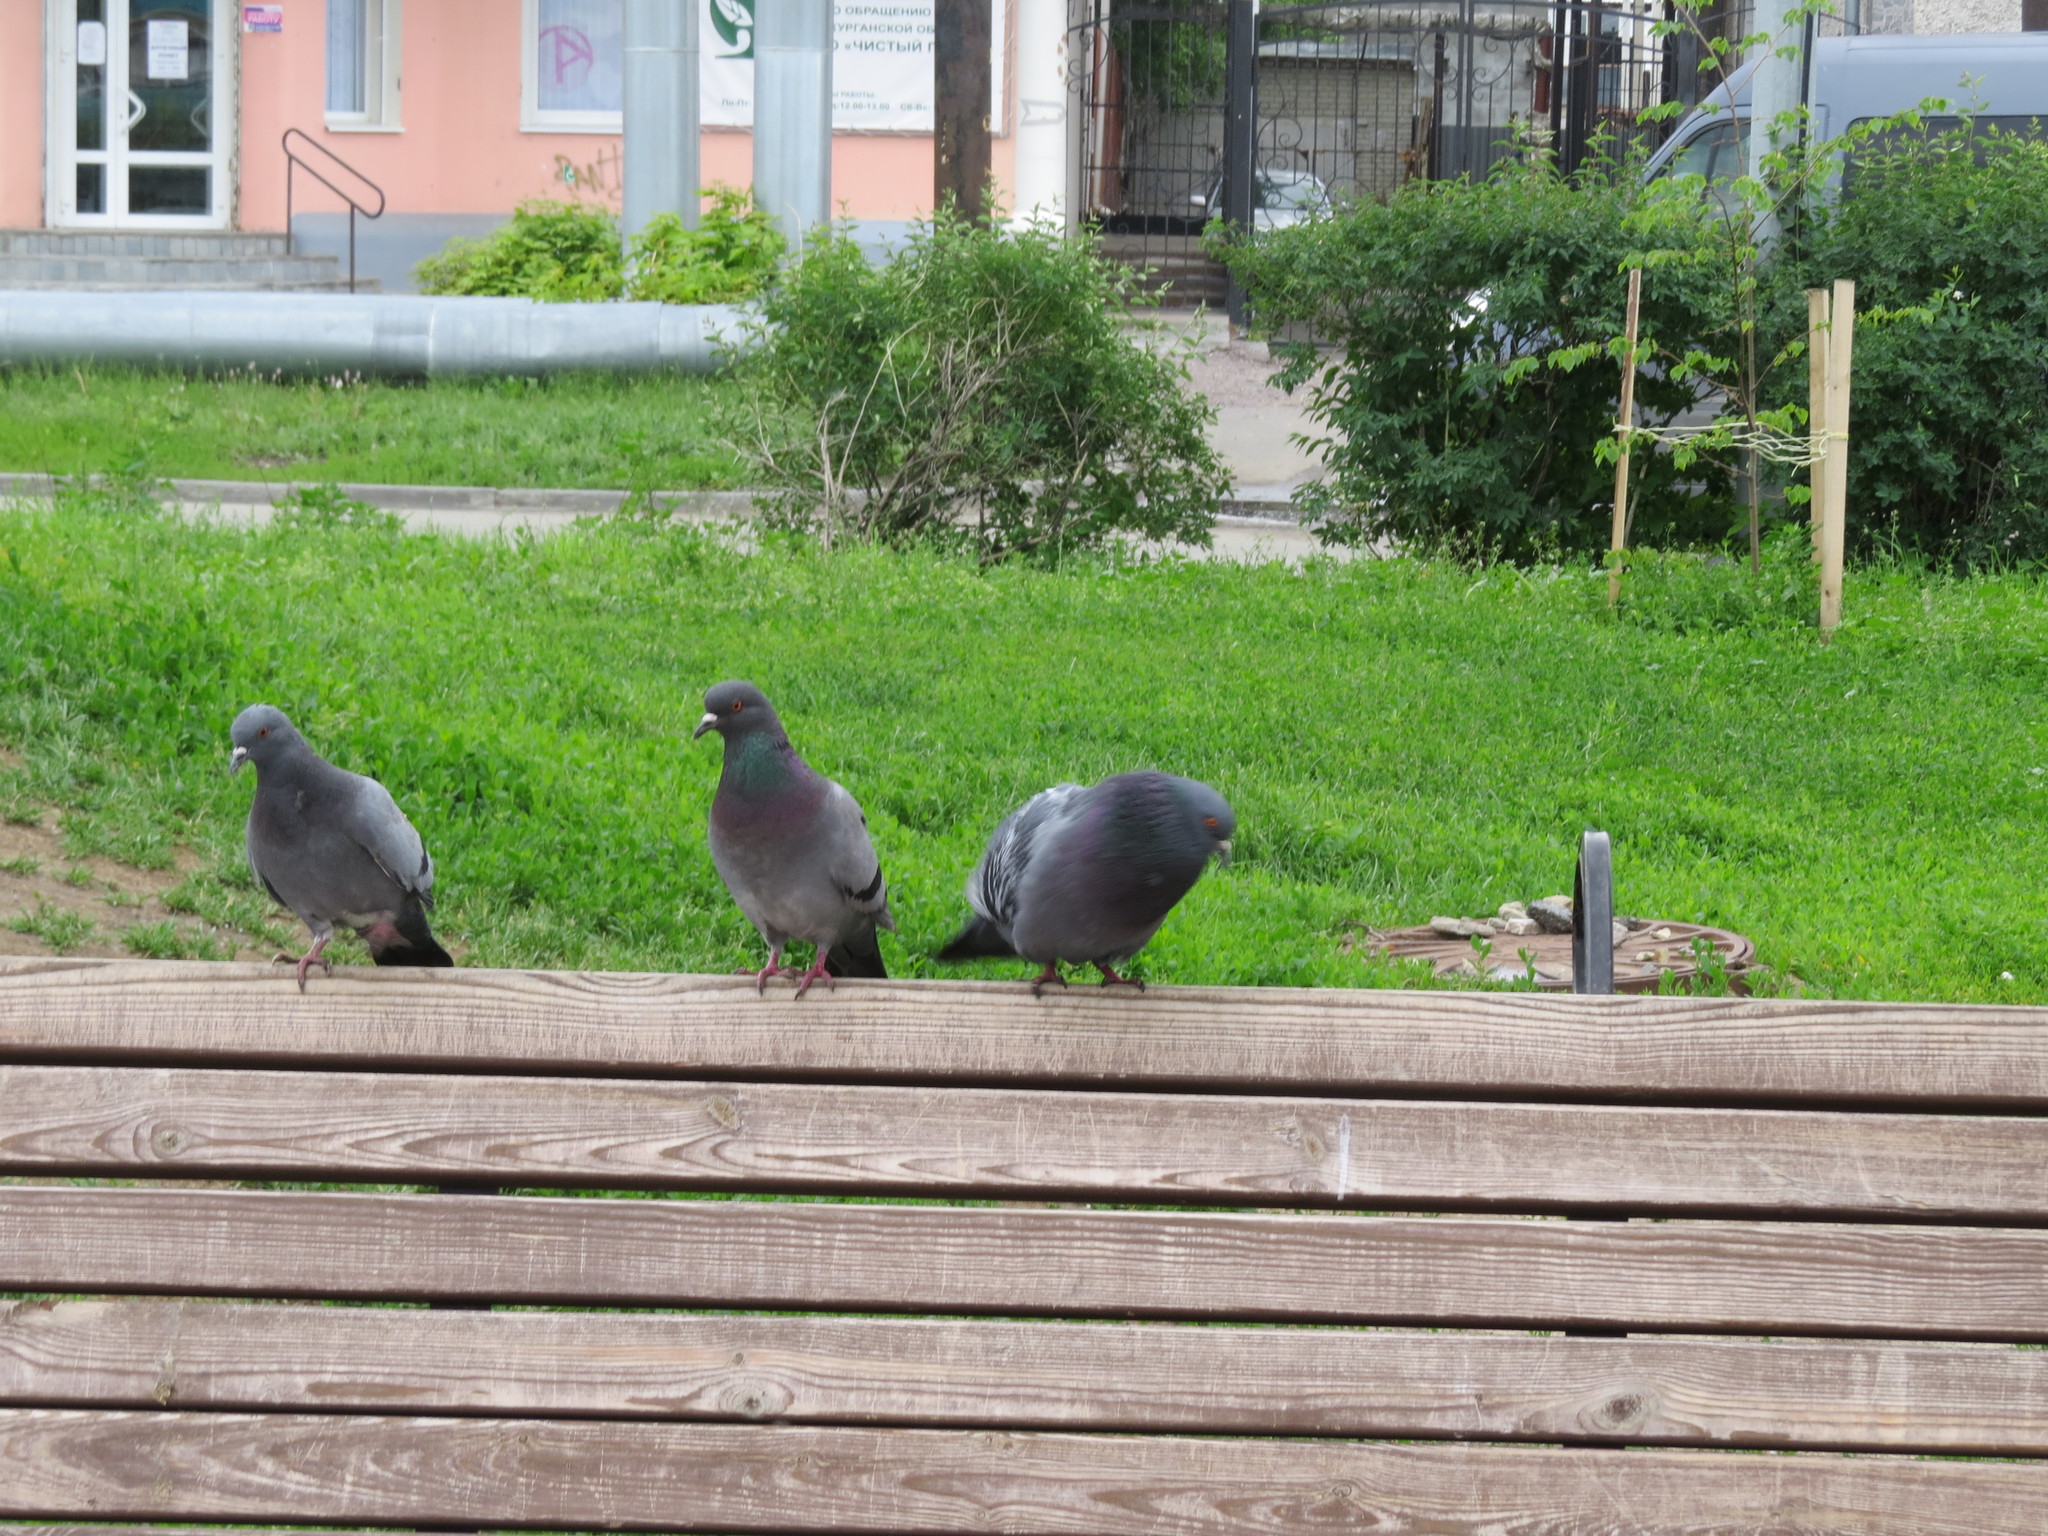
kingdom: Animalia
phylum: Chordata
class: Aves
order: Columbiformes
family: Columbidae
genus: Columba
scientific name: Columba livia
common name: Rock pigeon
